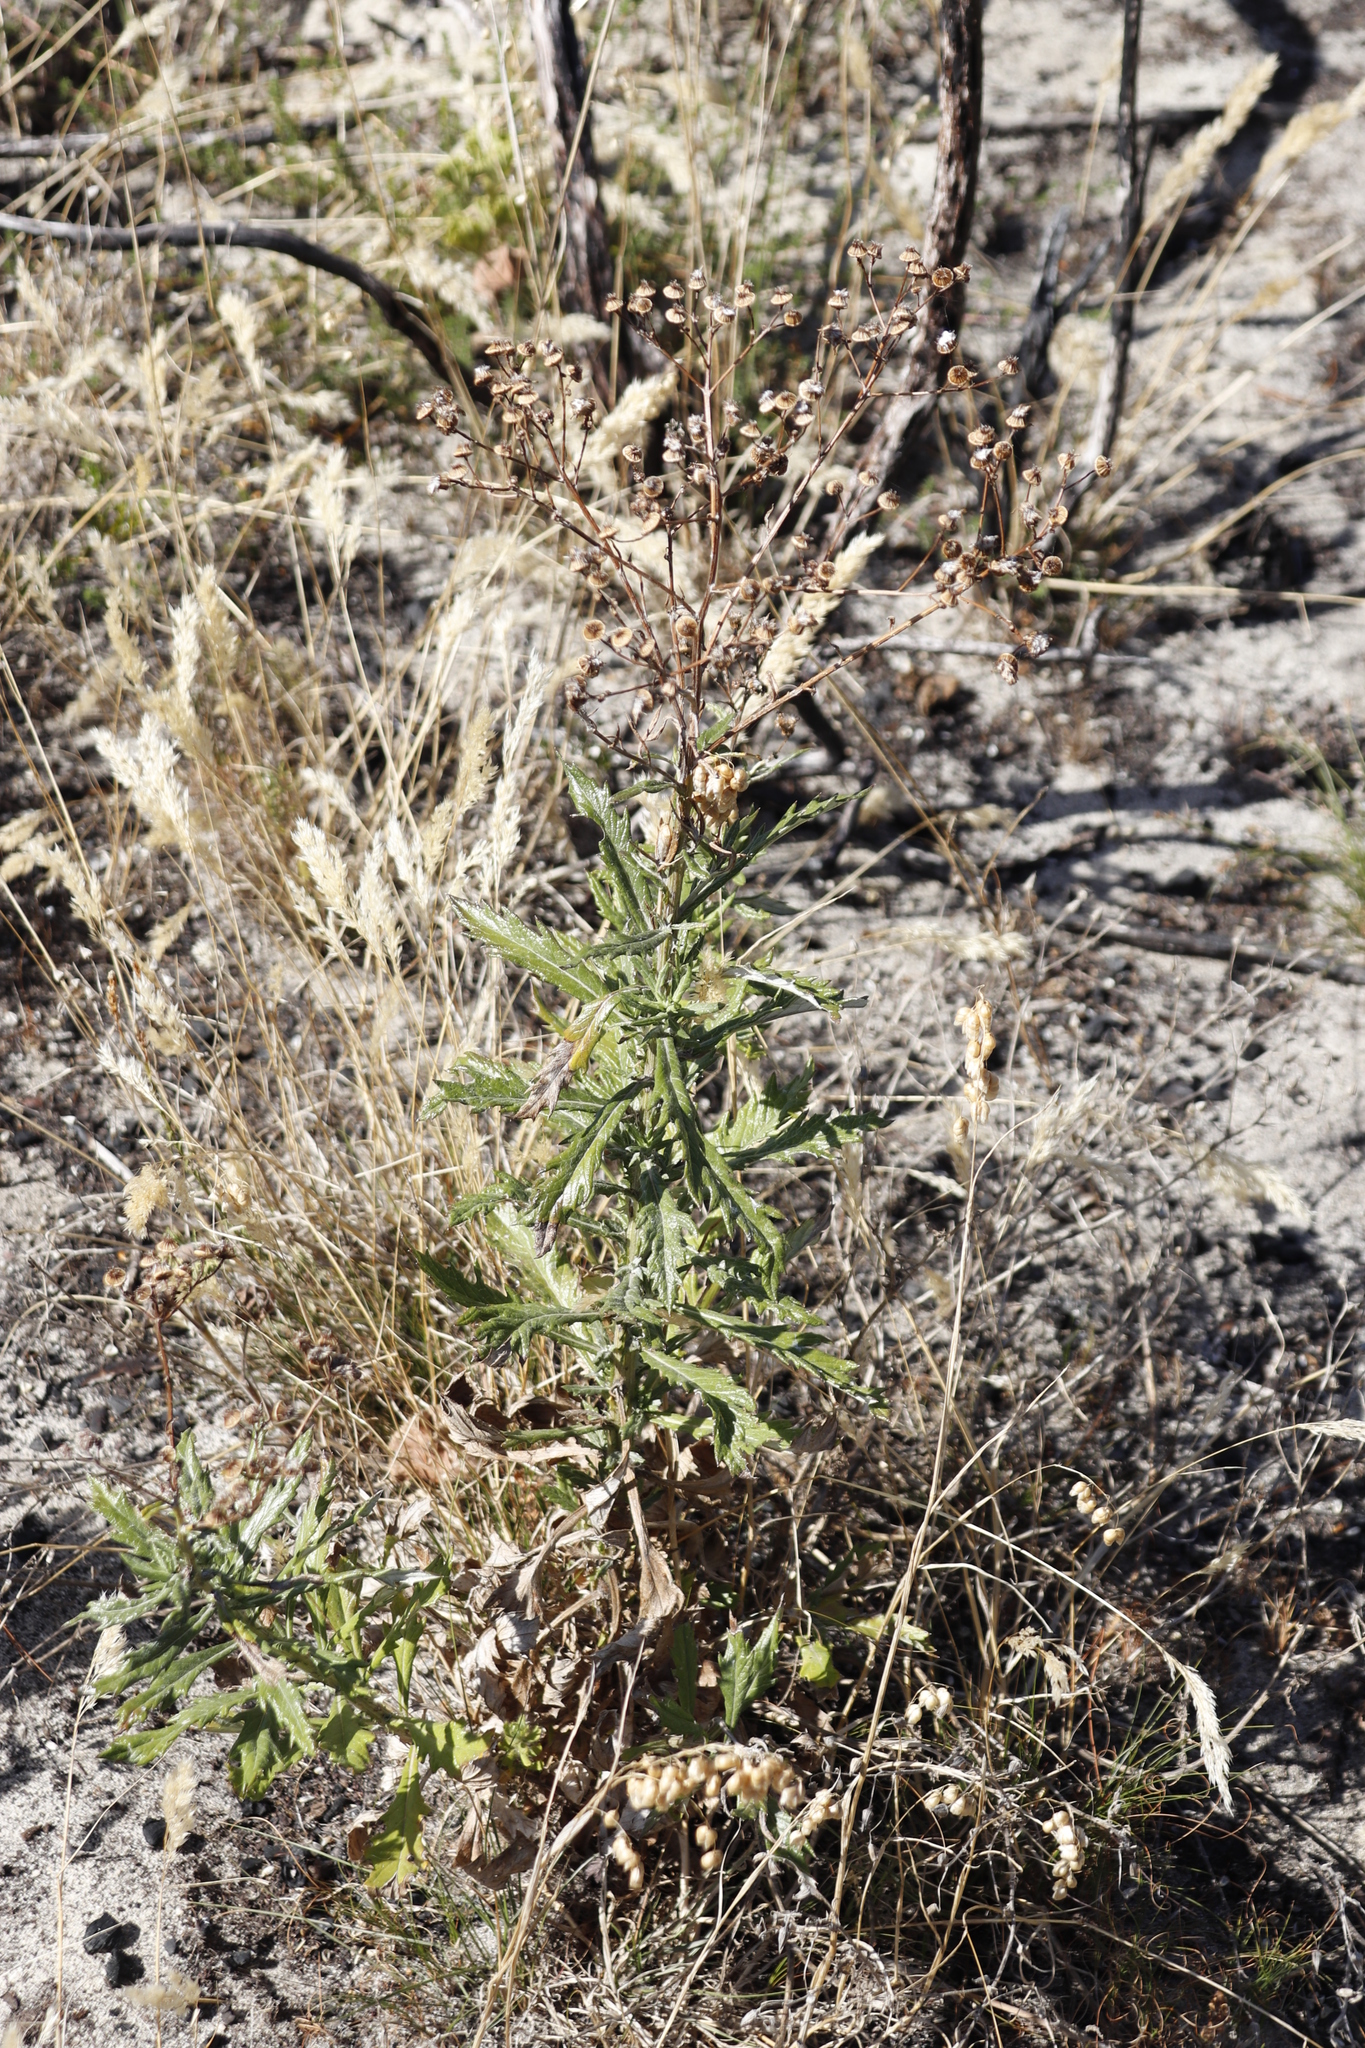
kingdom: Plantae
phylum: Tracheophyta
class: Magnoliopsida
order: Asterales
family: Asteraceae
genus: Senecio
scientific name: Senecio pterophorus
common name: Shoddy ragwort
